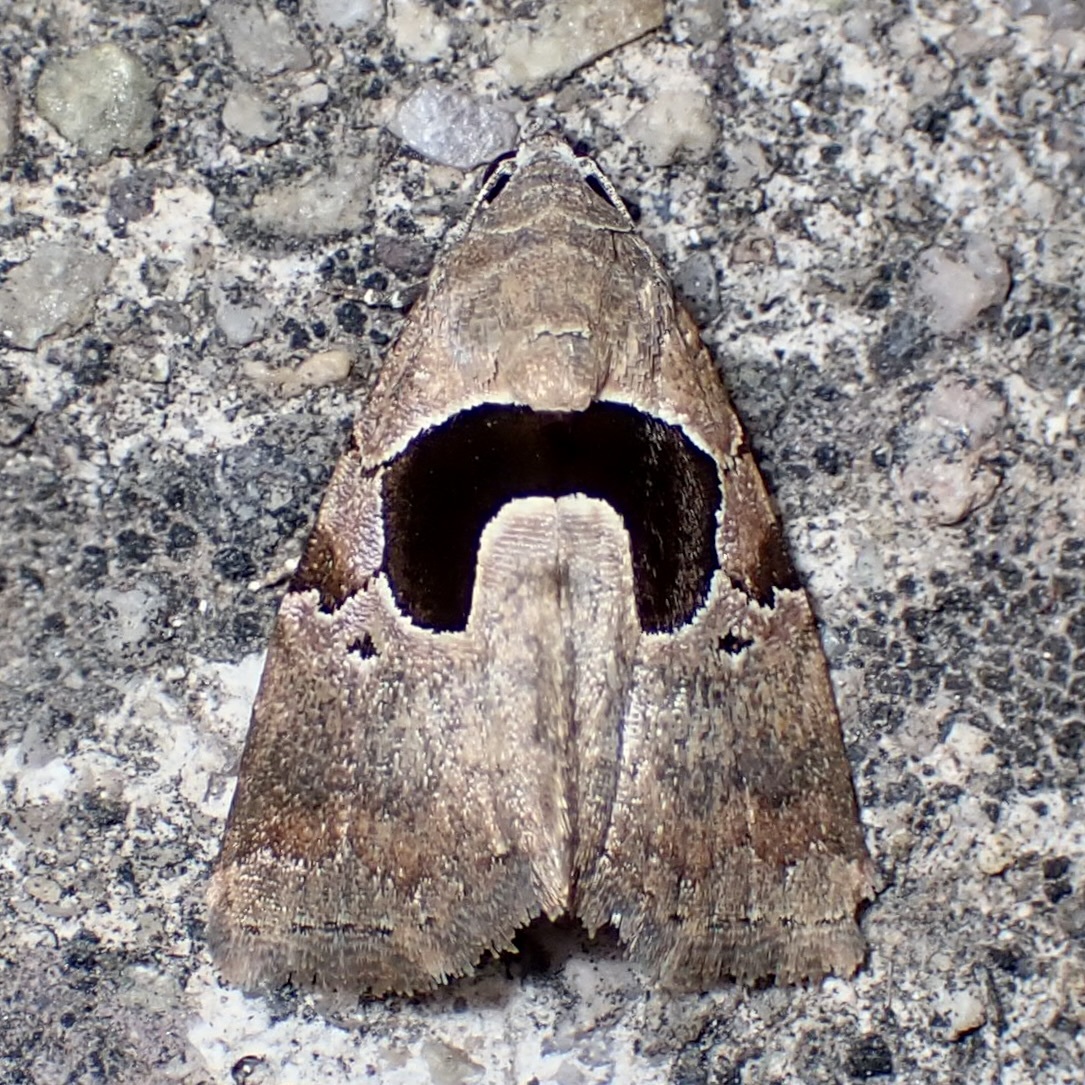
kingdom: Animalia
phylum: Arthropoda
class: Insecta
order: Lepidoptera
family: Noctuidae
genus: Tripudia
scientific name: Tripudia
